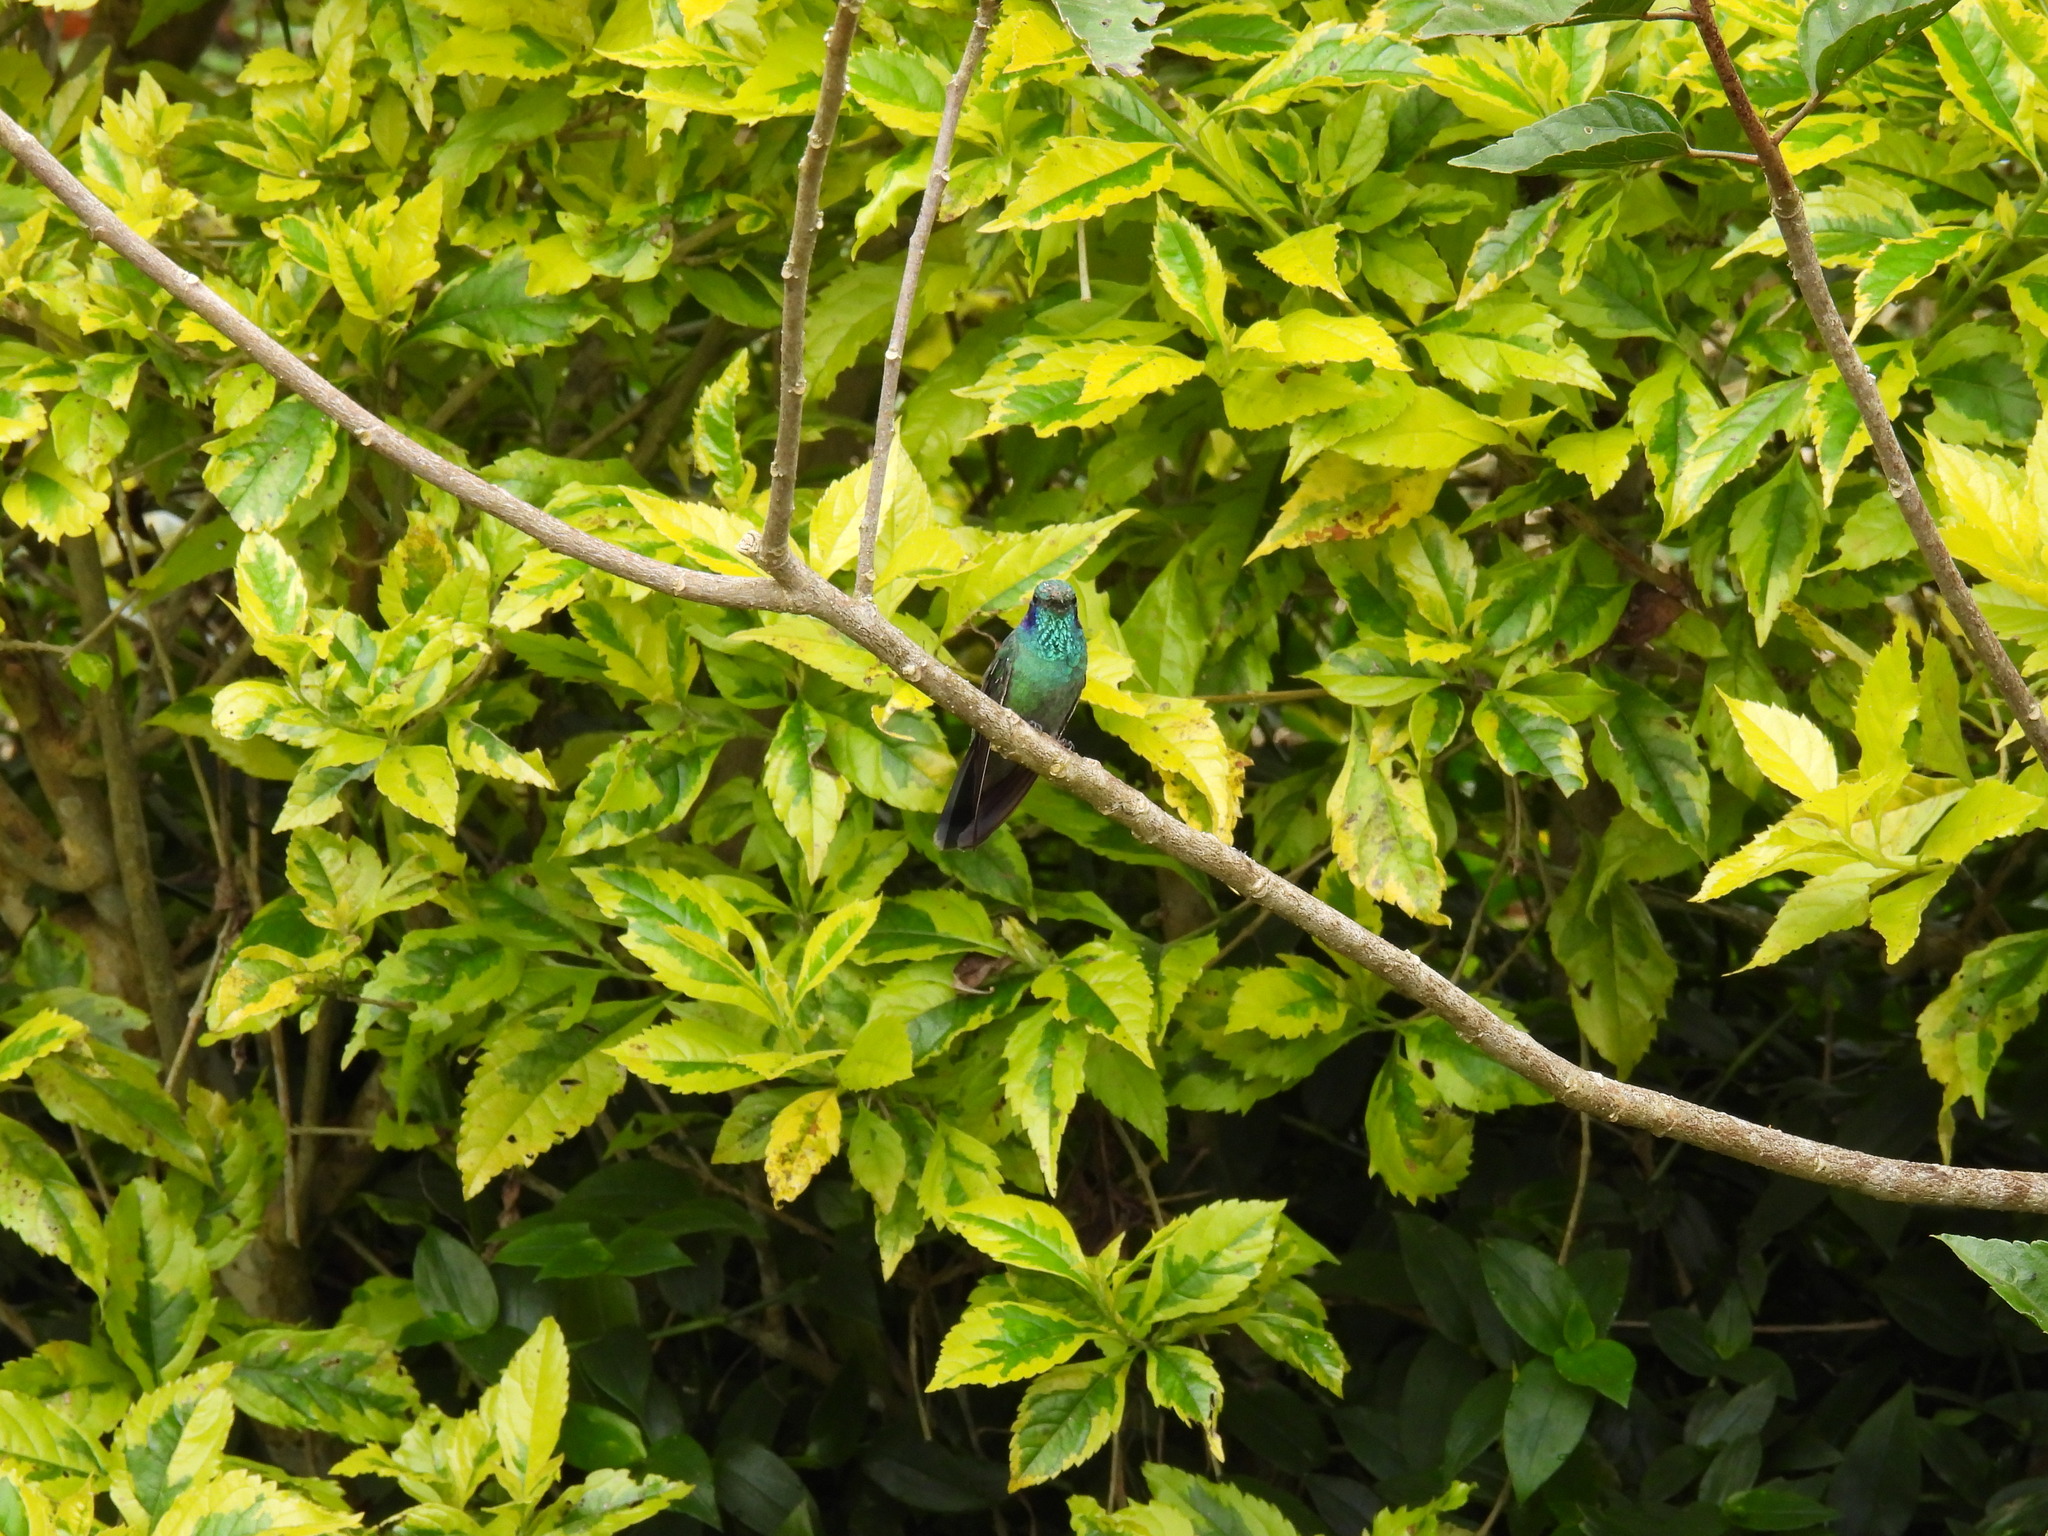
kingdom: Animalia
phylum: Chordata
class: Aves
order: Apodiformes
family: Trochilidae
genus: Colibri
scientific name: Colibri cyanotus
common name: Lesser violetear
